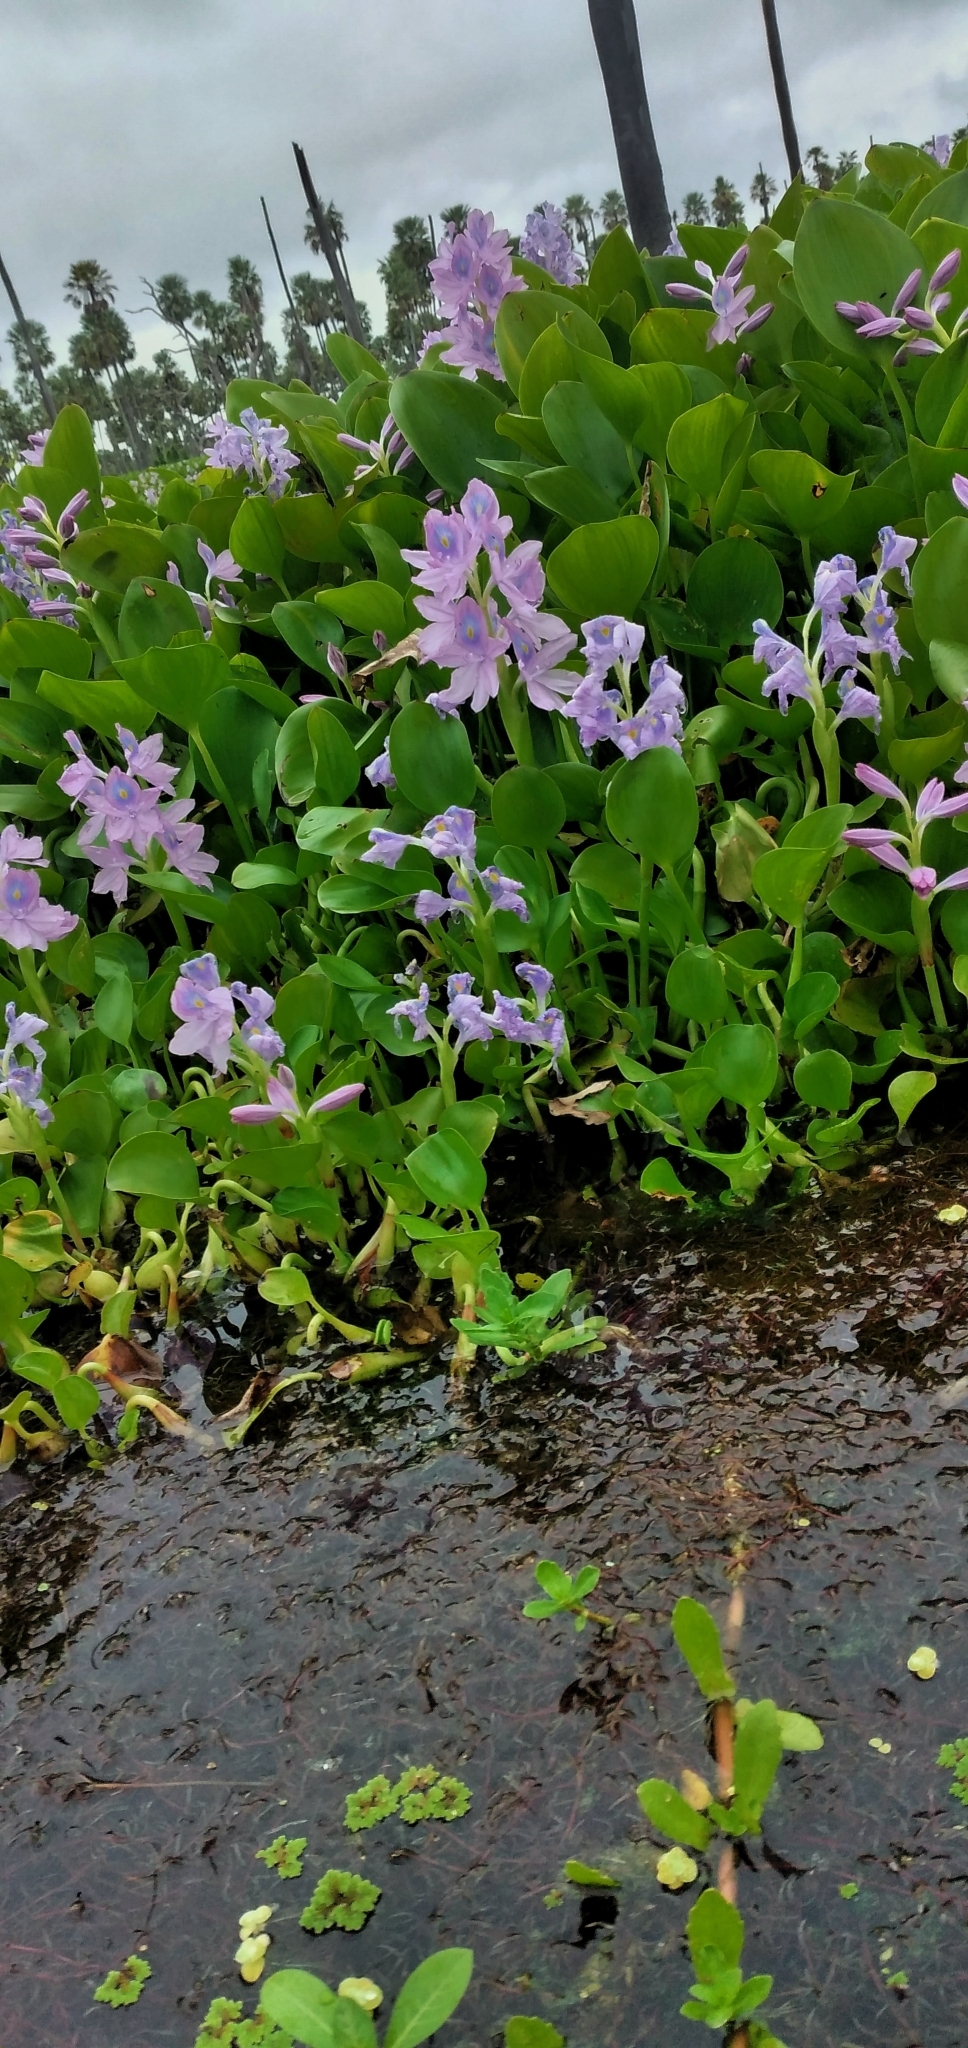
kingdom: Plantae
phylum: Tracheophyta
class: Liliopsida
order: Commelinales
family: Pontederiaceae
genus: Pontederia
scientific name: Pontederia crassipes
